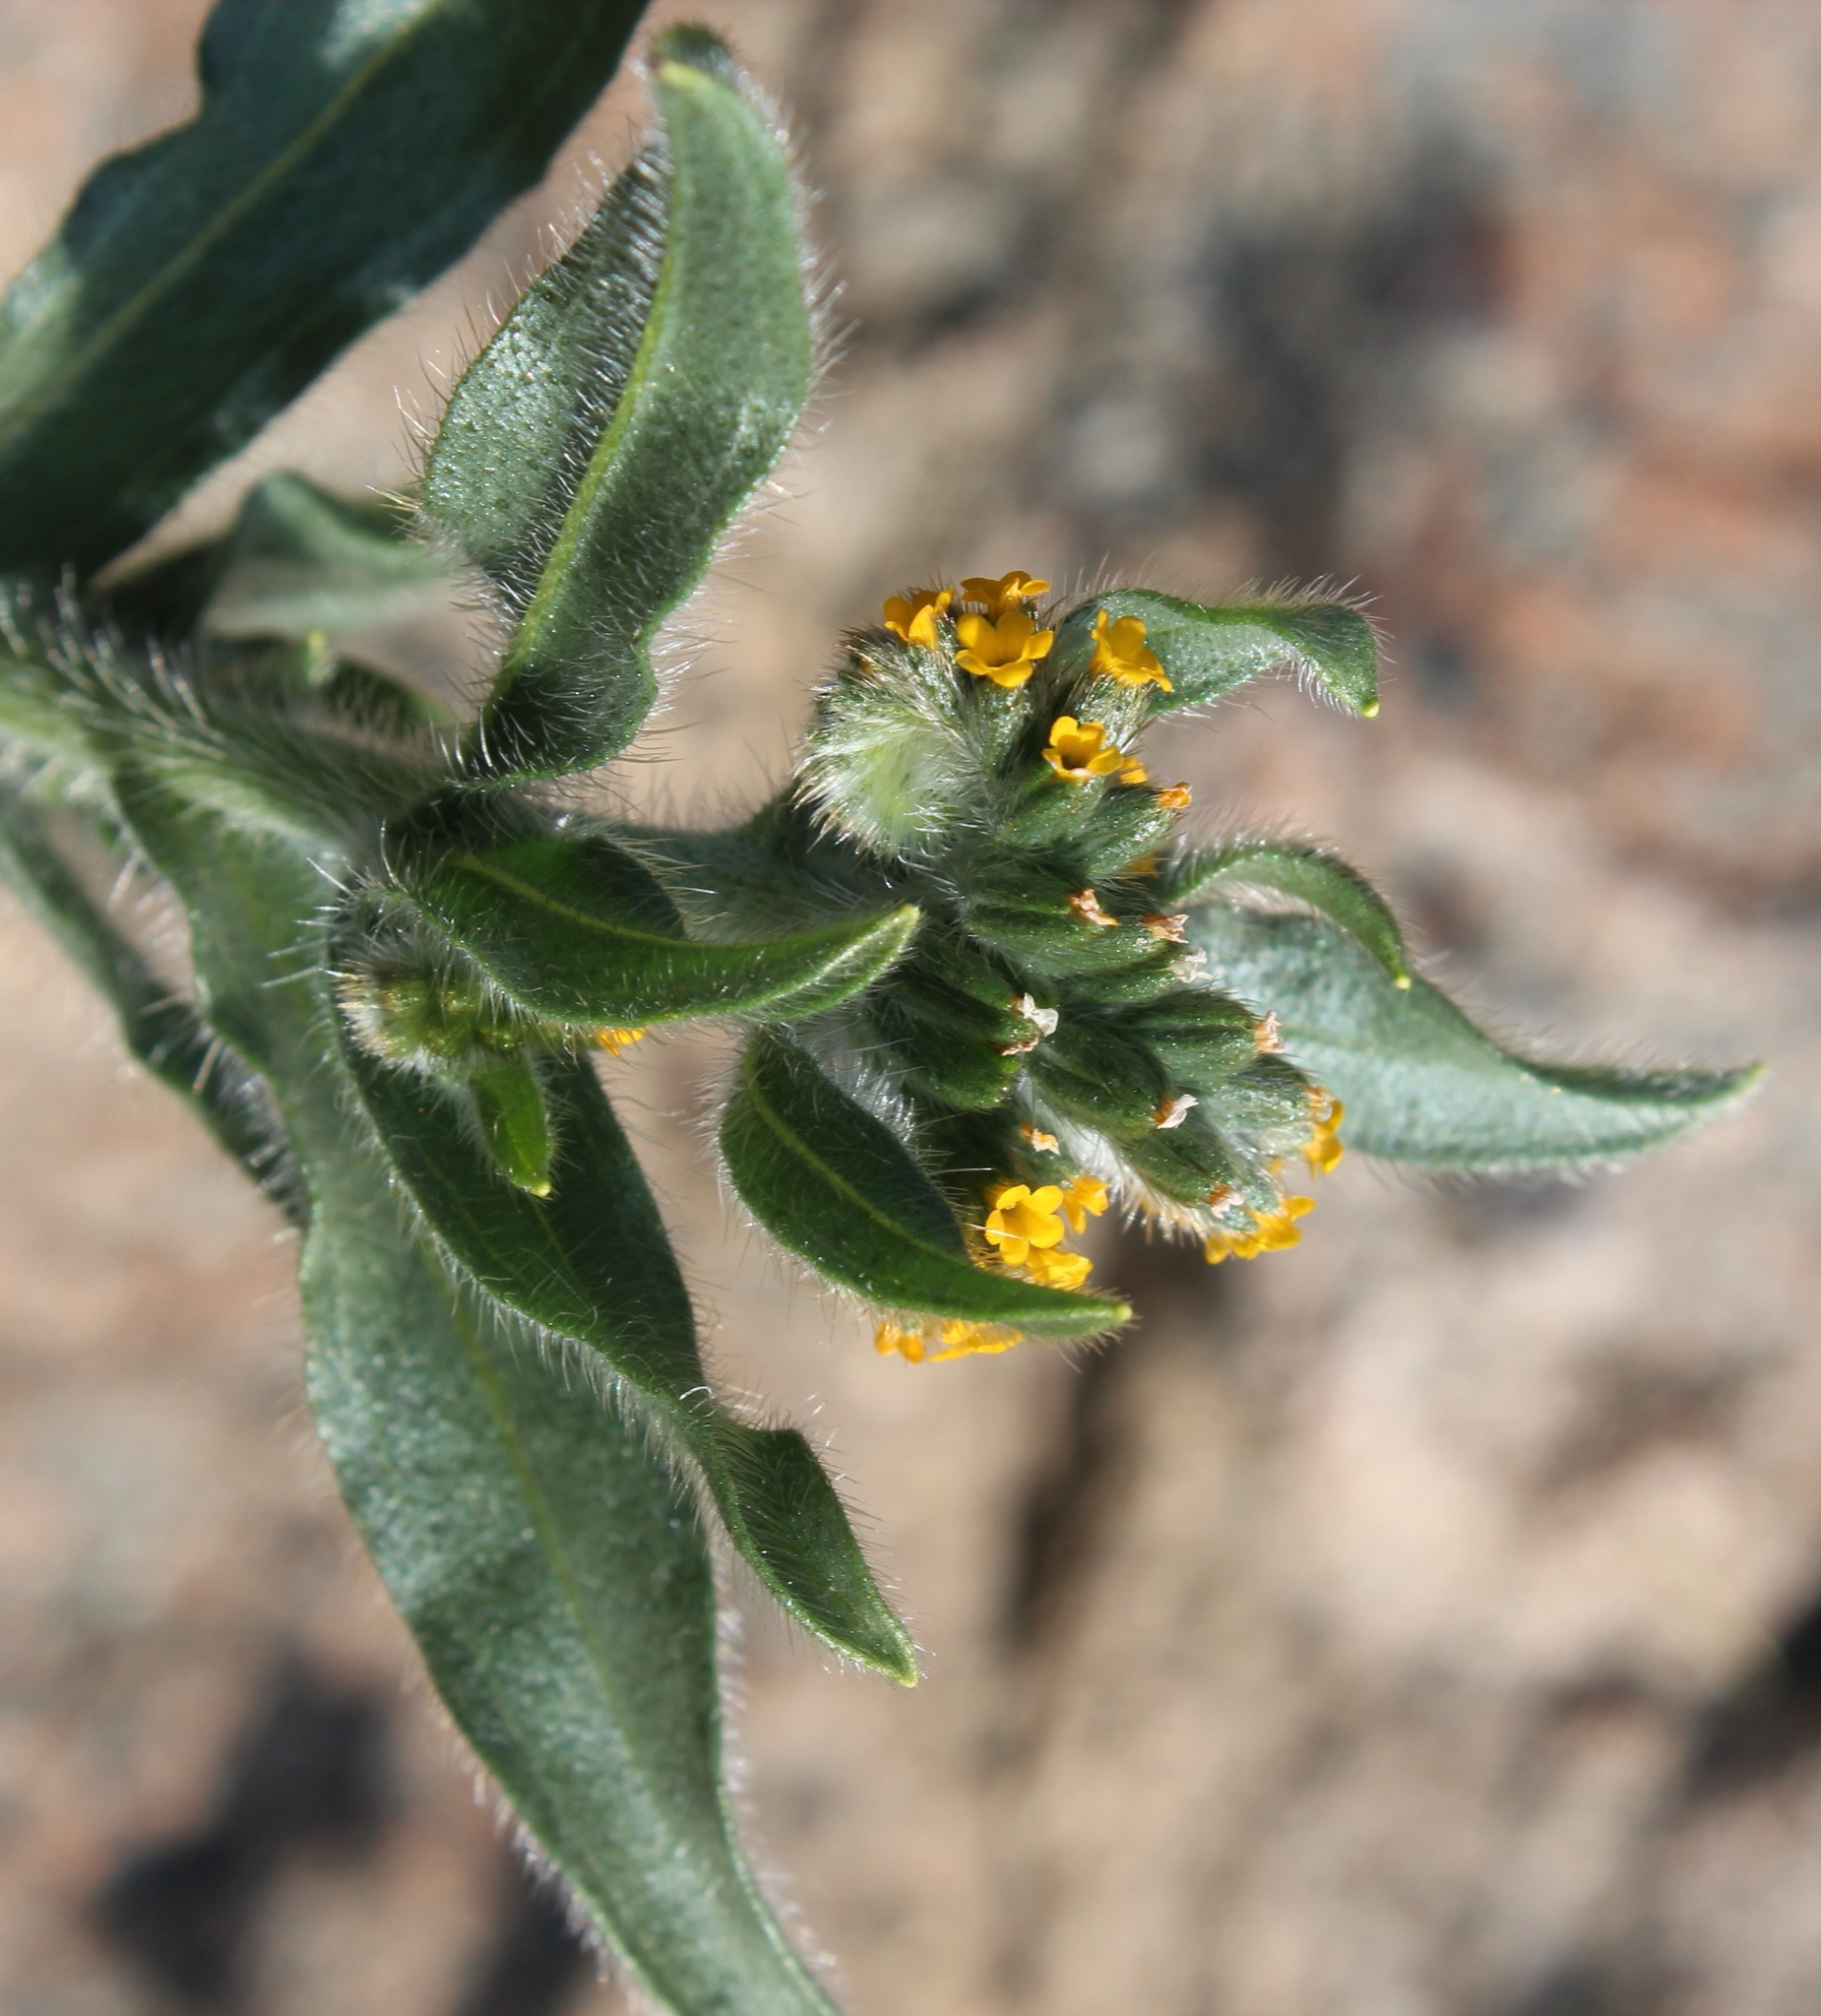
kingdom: Plantae
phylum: Tracheophyta
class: Magnoliopsida
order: Boraginales
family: Boraginaceae
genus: Amsinckia
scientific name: Amsinckia menziesii
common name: Menzies' fiddleneck
